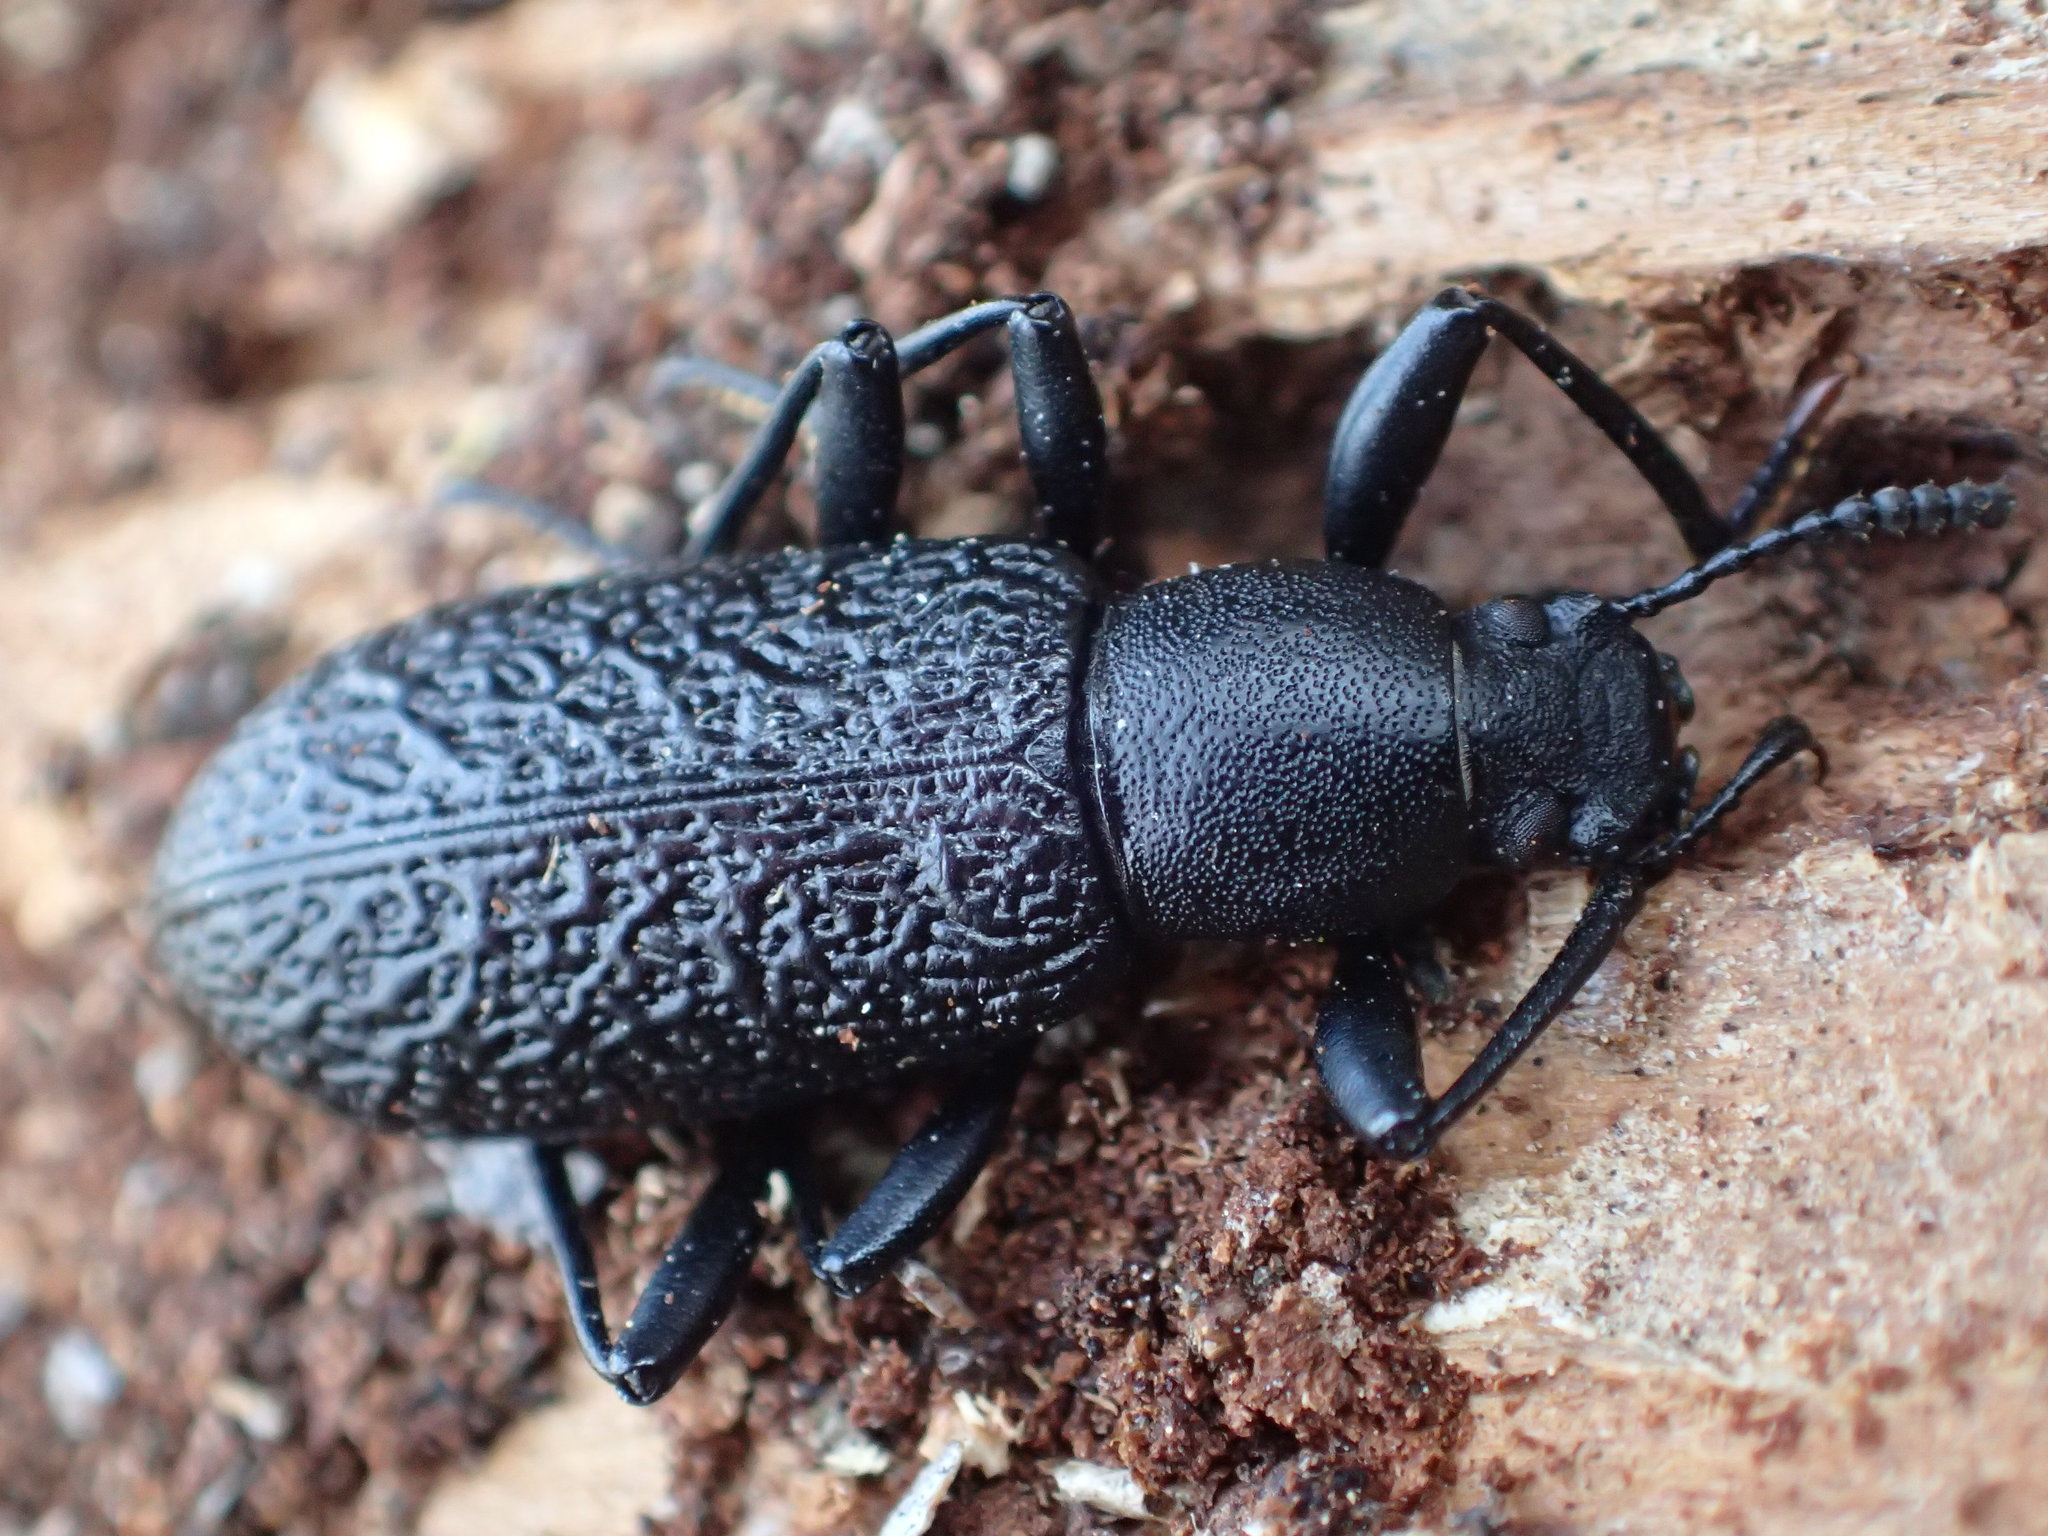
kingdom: Animalia
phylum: Arthropoda
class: Insecta
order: Coleoptera
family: Tenebrionidae
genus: Upis
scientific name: Upis ceramboides
